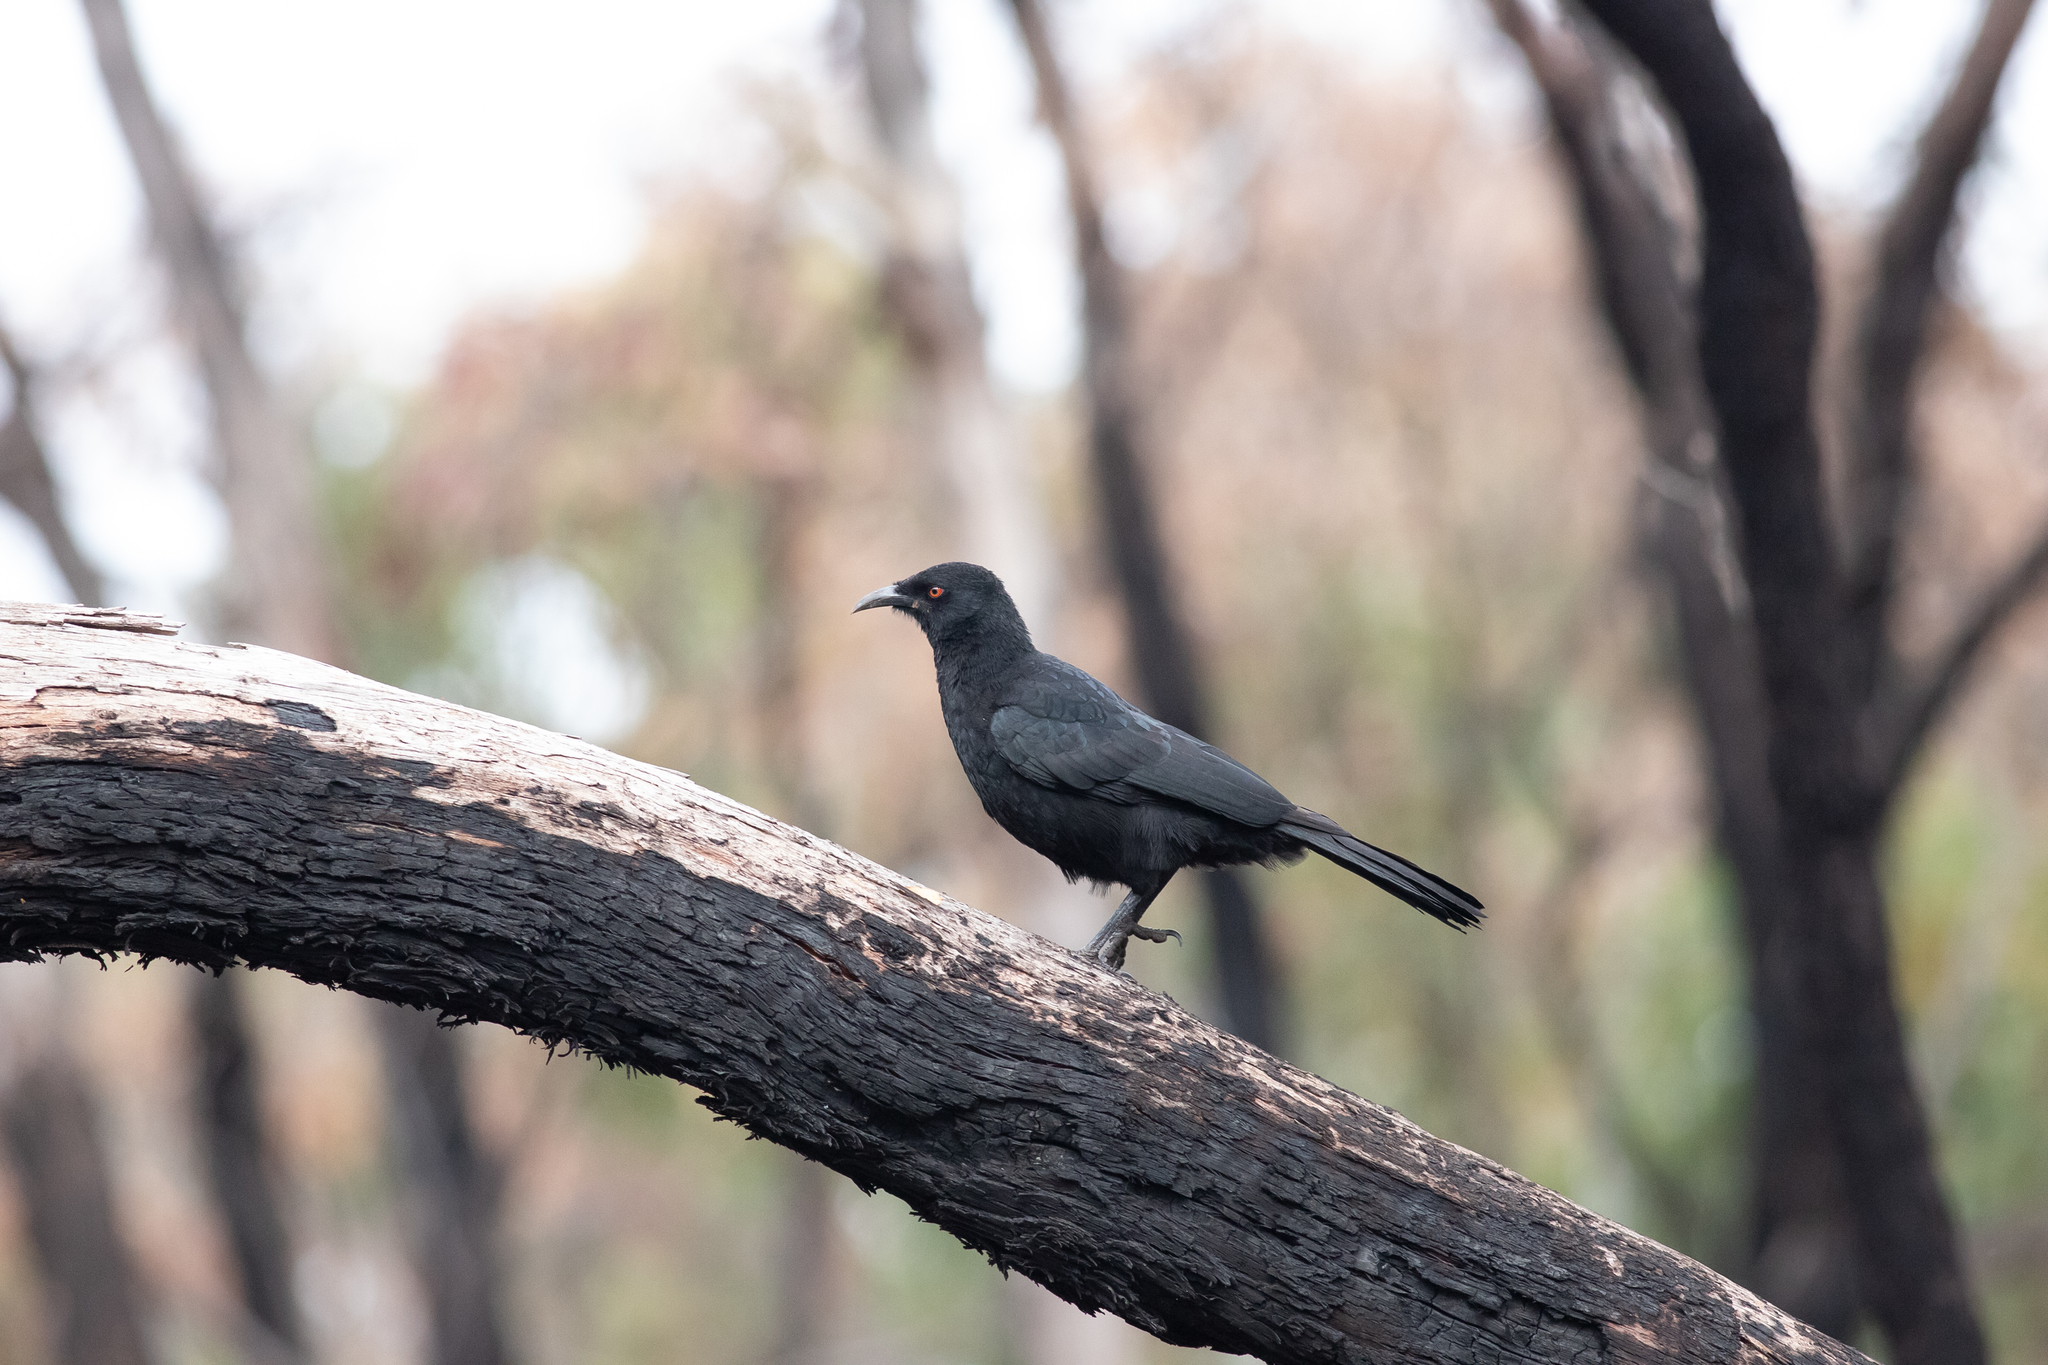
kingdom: Animalia
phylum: Chordata
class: Aves
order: Passeriformes
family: Corcoracidae
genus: Corcorax
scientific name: Corcorax melanoramphos
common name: White-winged chough
